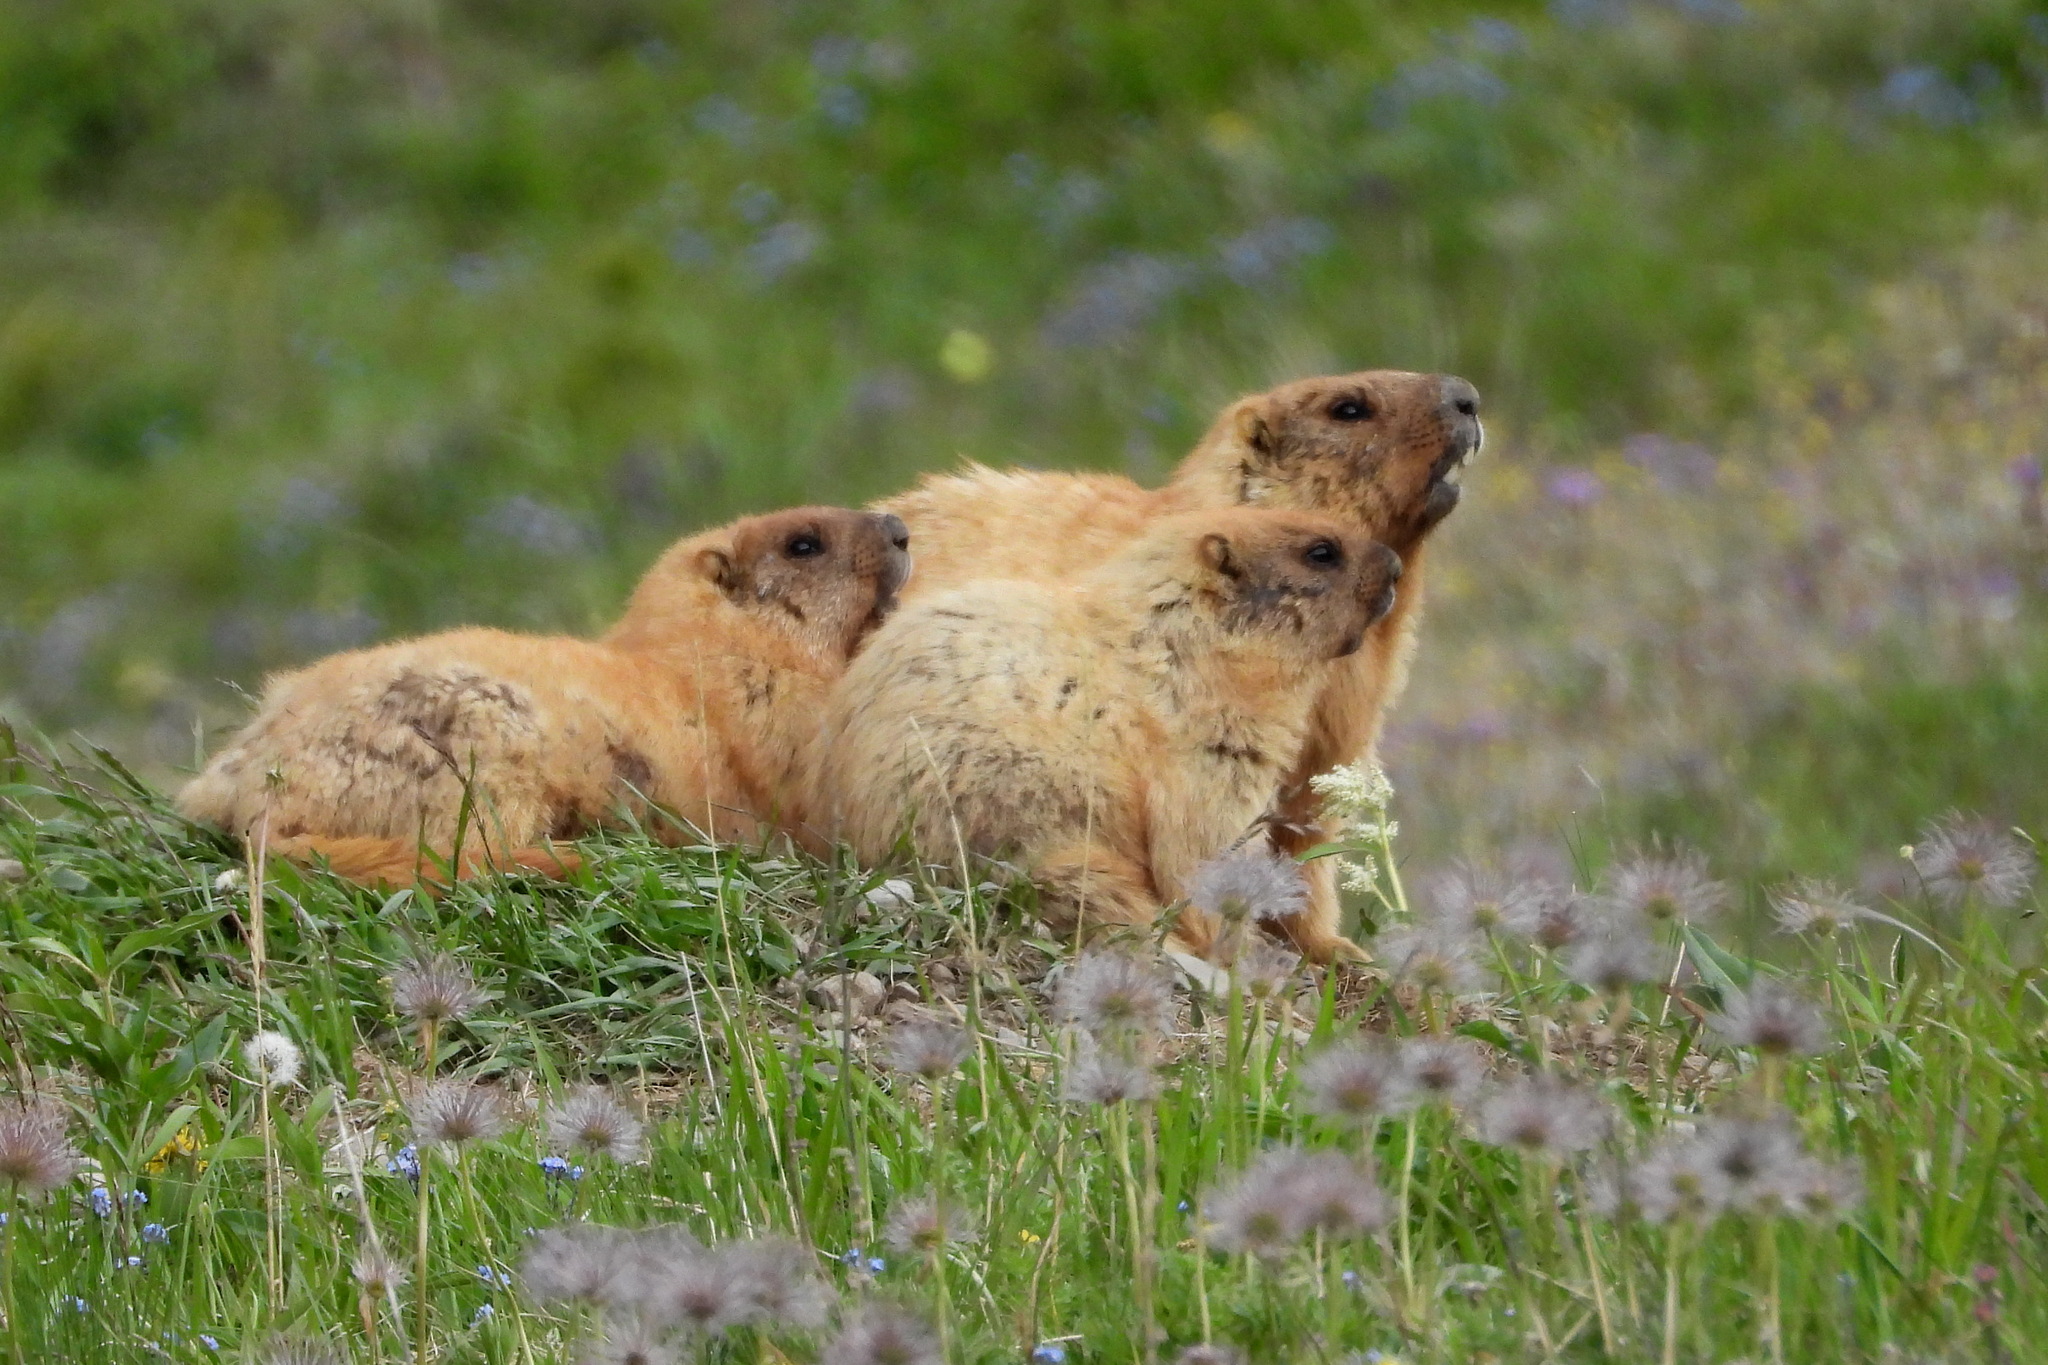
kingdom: Animalia
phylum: Chordata
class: Mammalia
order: Rodentia
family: Sciuridae
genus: Marmota
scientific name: Marmota baibacina
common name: Gray marmot
